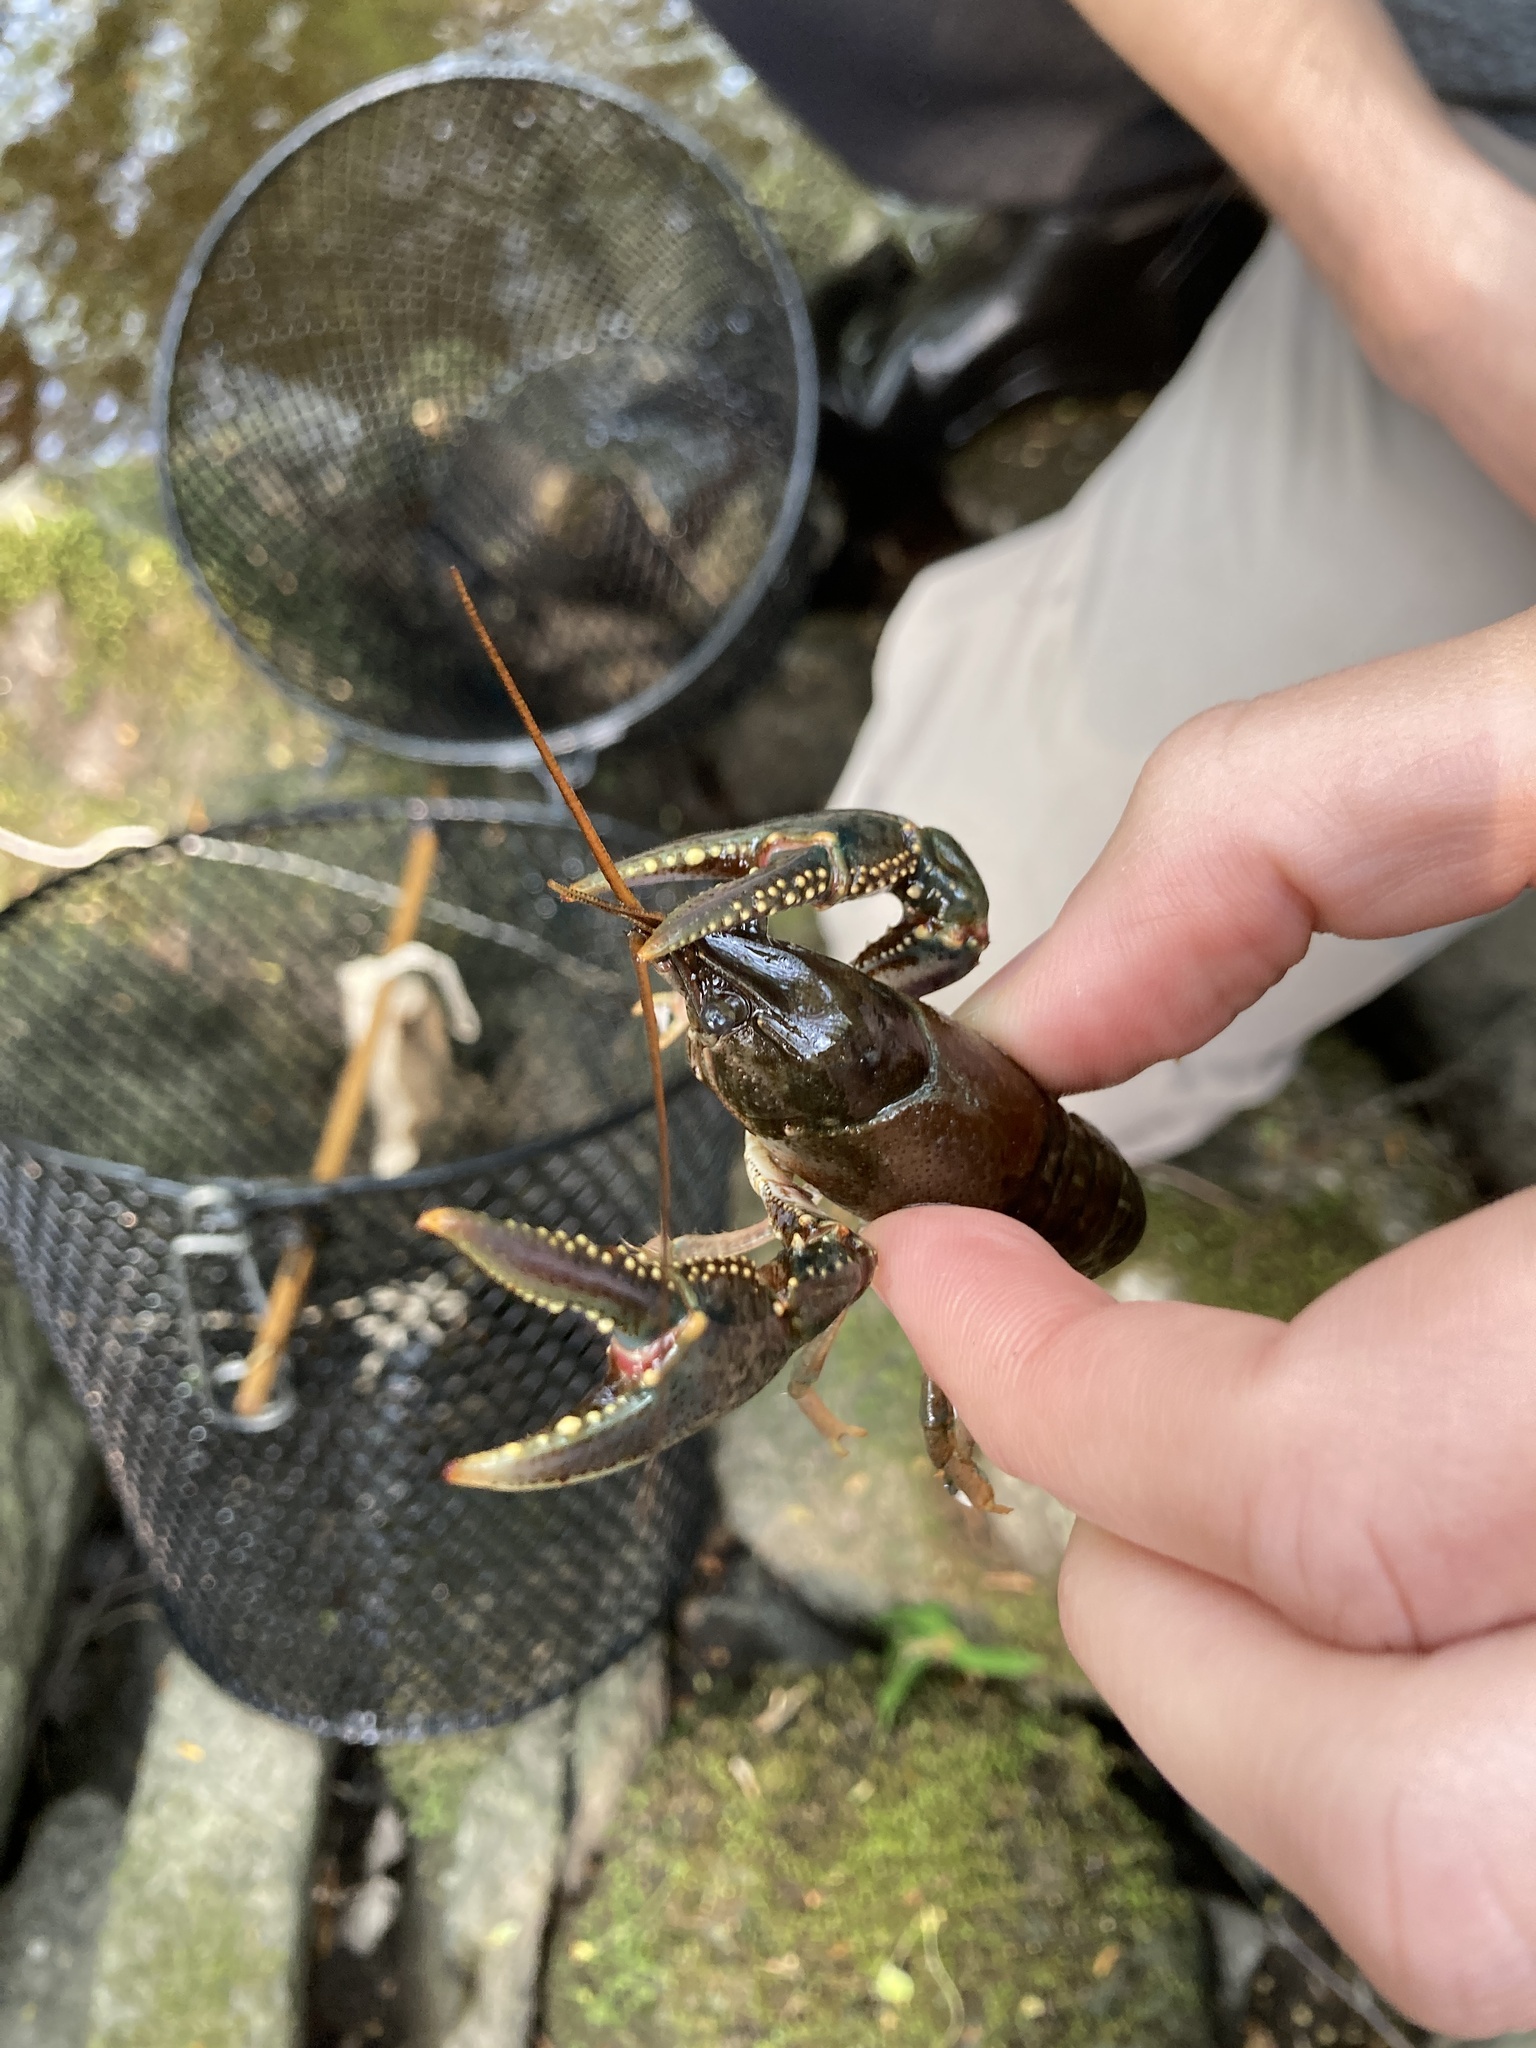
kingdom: Animalia
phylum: Arthropoda
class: Malacostraca
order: Decapoda
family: Cambaridae
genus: Faxonius
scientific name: Faxonius virilis
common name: Virile crayfish
